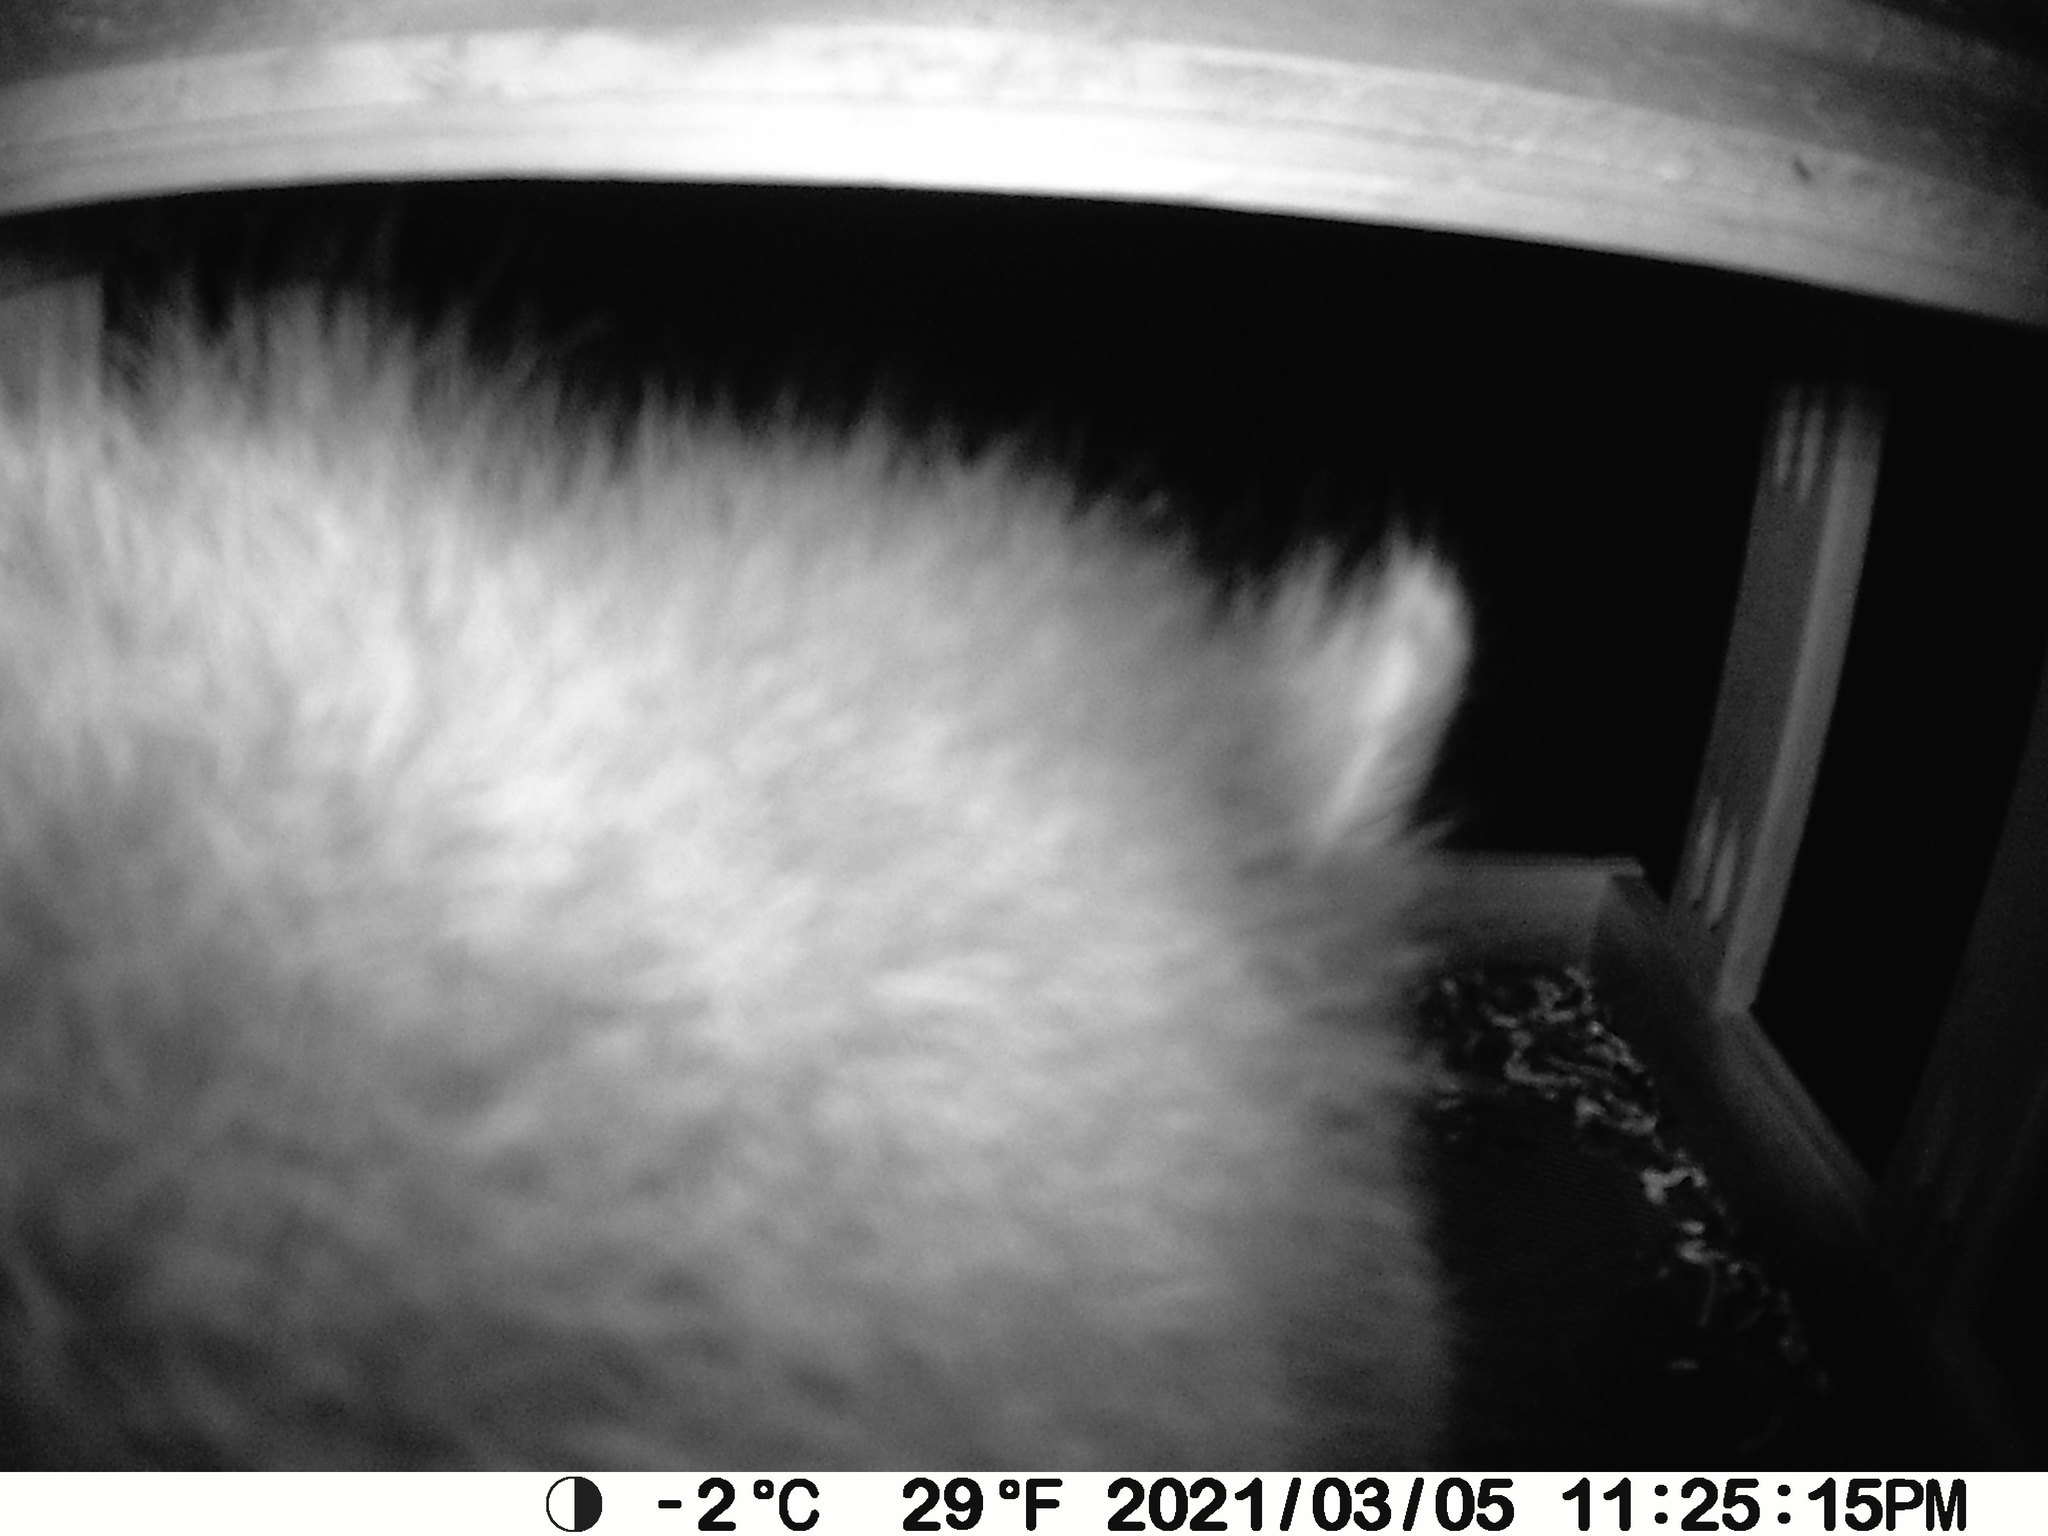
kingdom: Animalia
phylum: Chordata
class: Mammalia
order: Carnivora
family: Procyonidae
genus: Procyon
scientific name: Procyon lotor
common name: Raccoon
